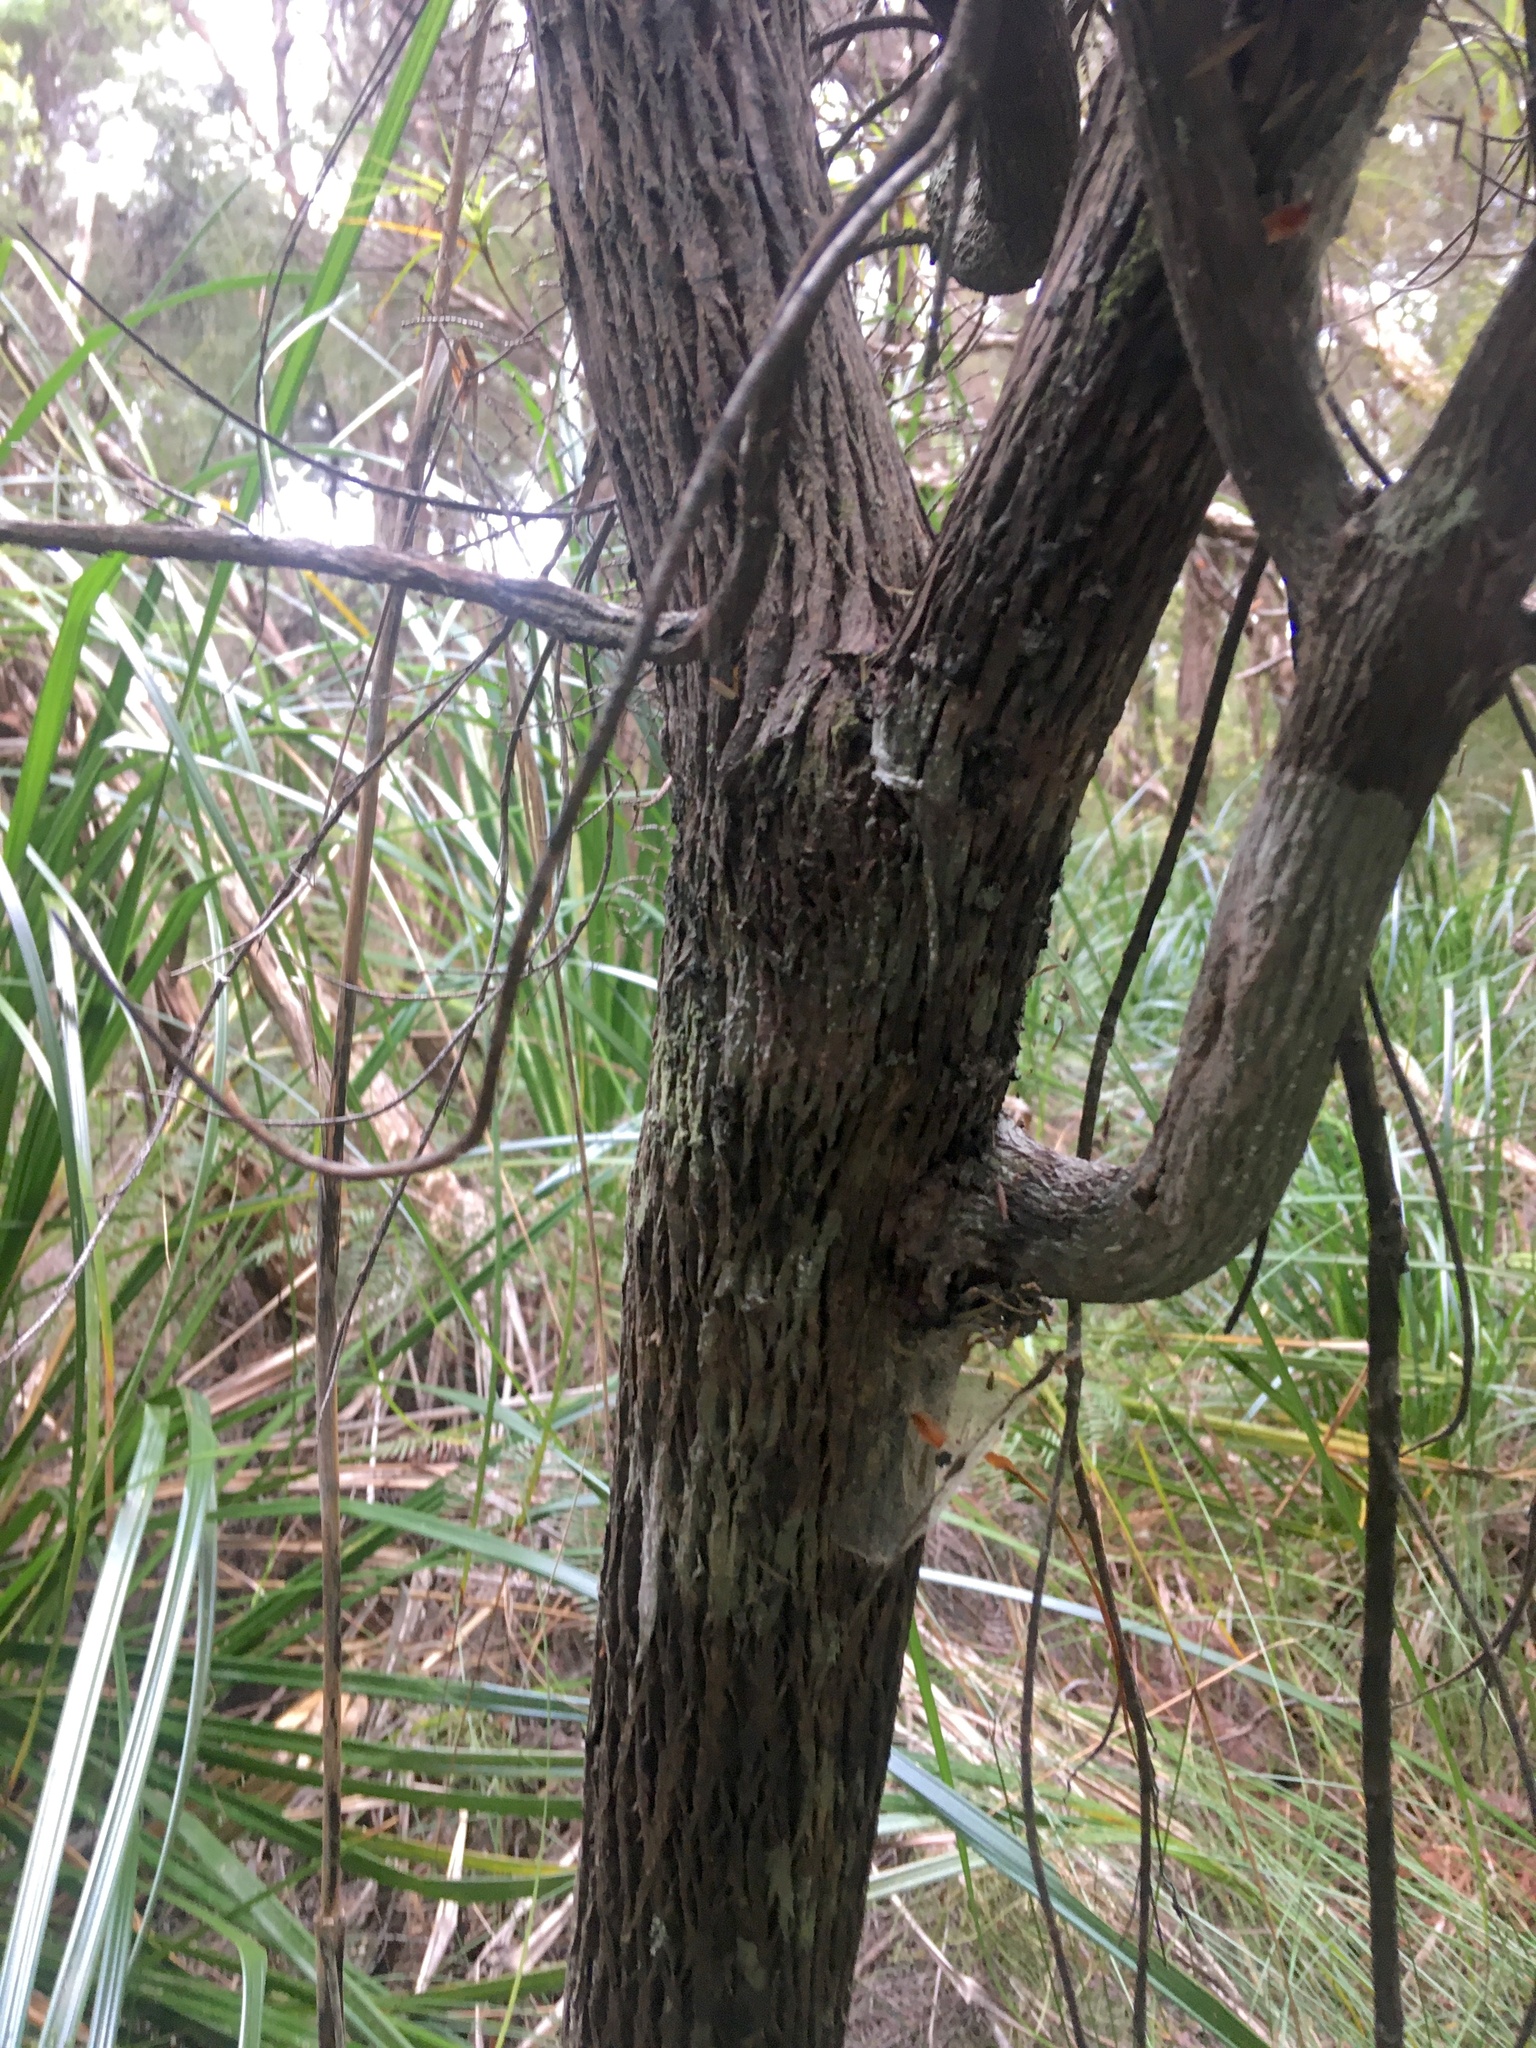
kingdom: Plantae
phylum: Tracheophyta
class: Magnoliopsida
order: Ericales
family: Ericaceae
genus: Dracophyllum
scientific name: Dracophyllum sinclairii
